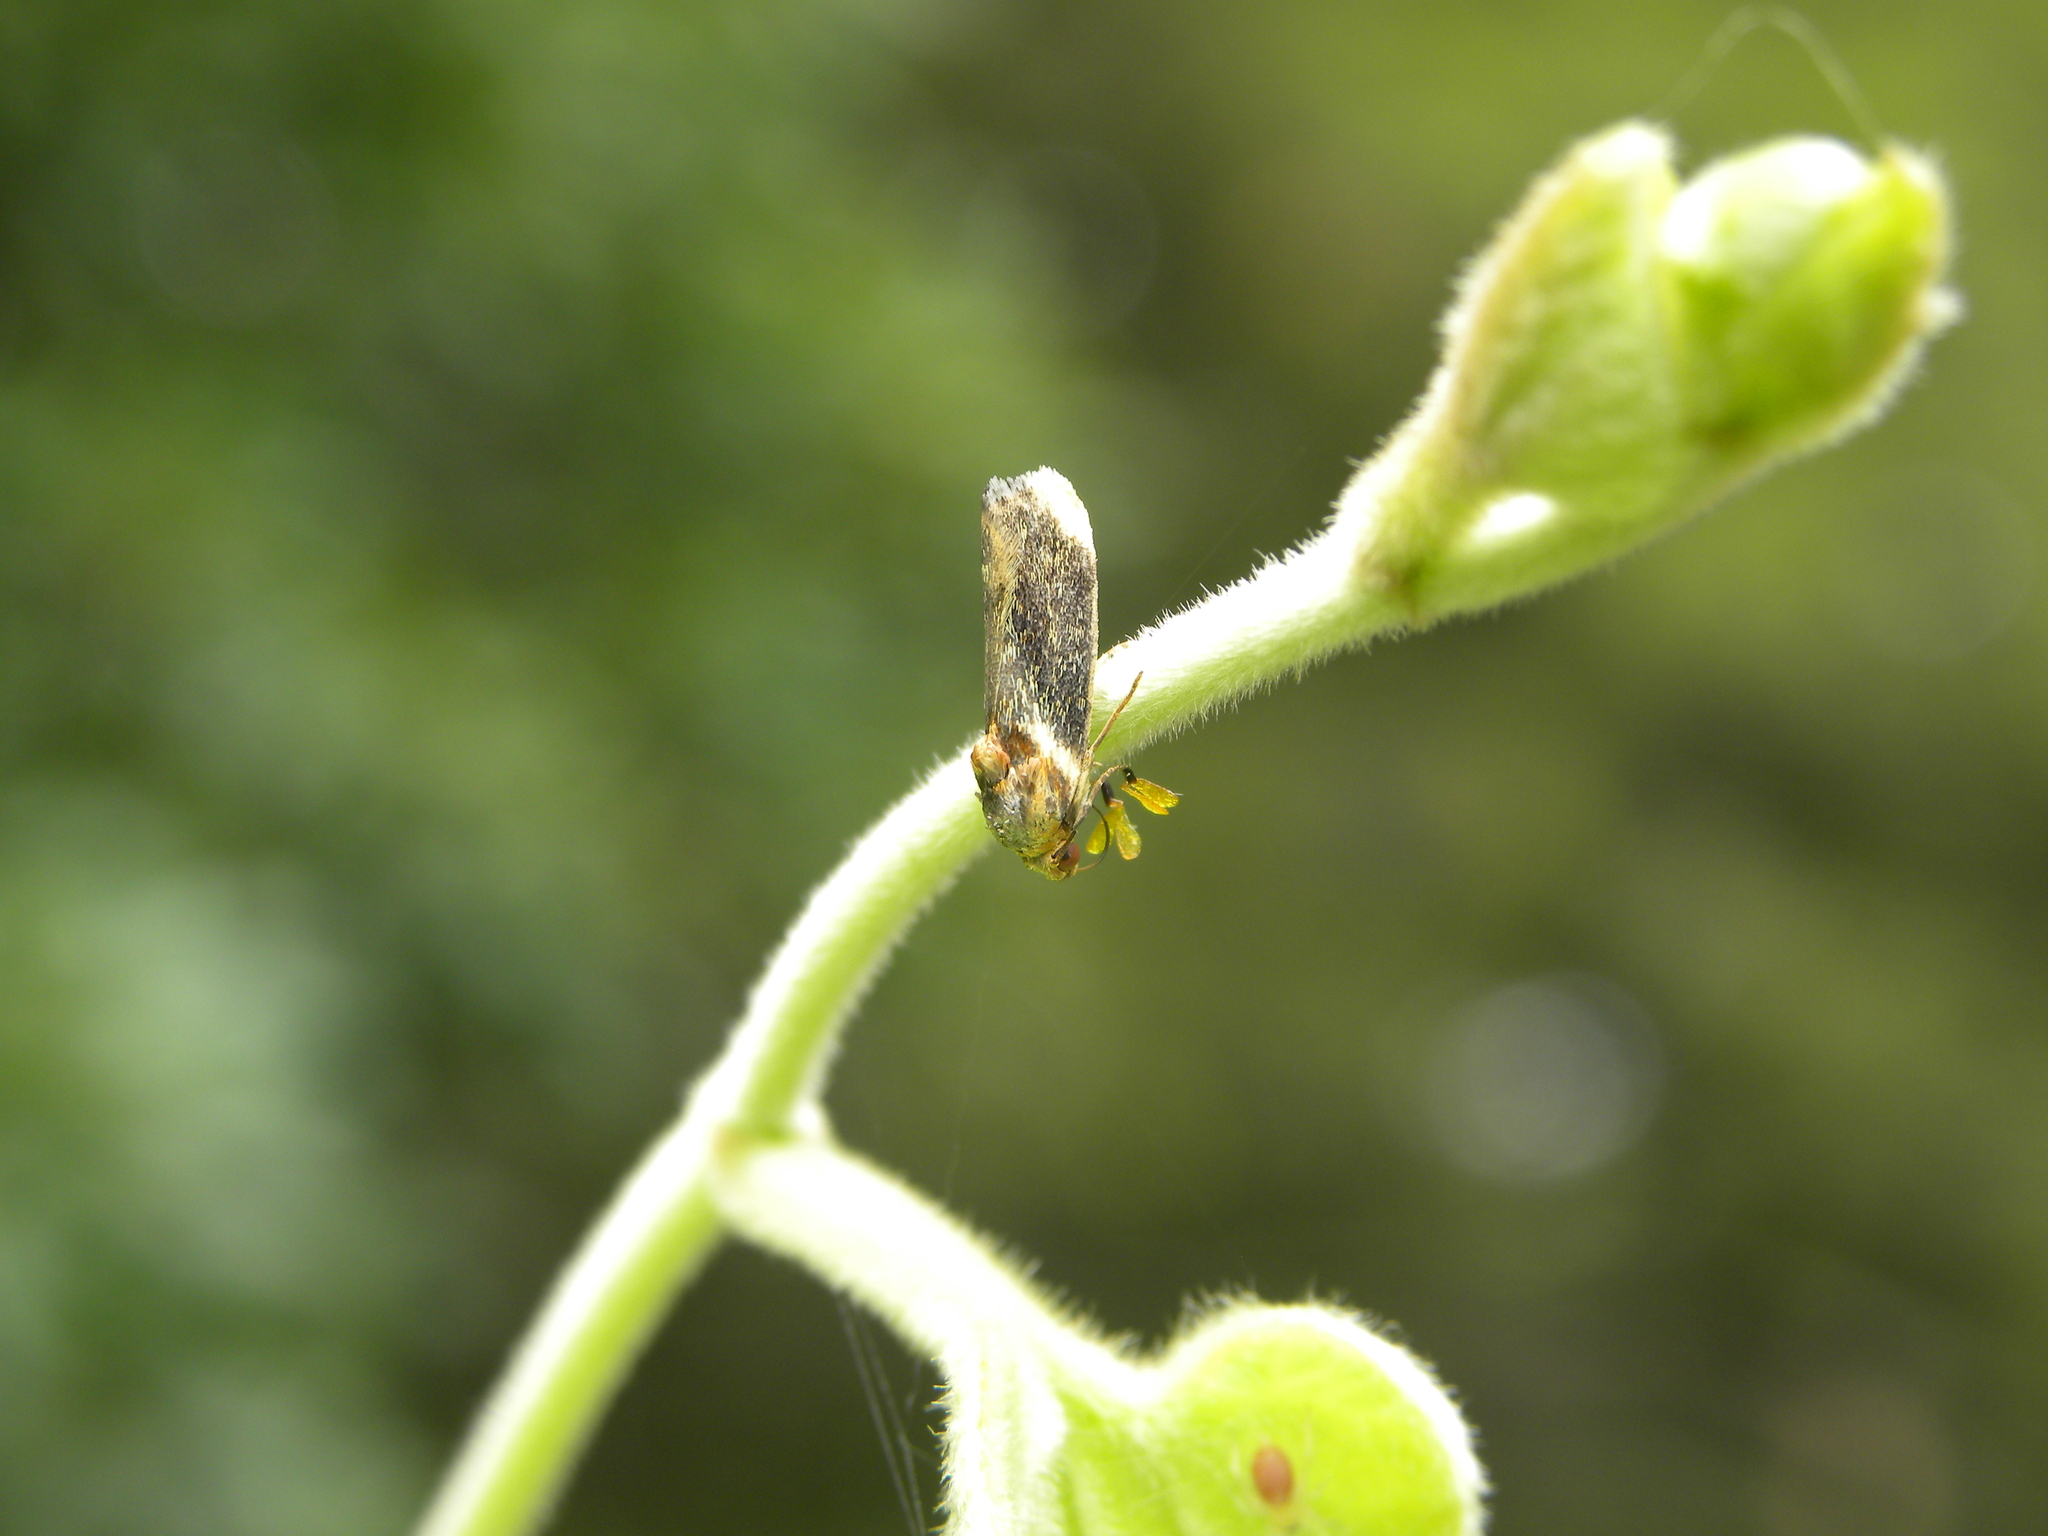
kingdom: Animalia
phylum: Arthropoda
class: Insecta
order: Lepidoptera
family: Noctuidae
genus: Spragueia
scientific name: Spragueia apicalis
